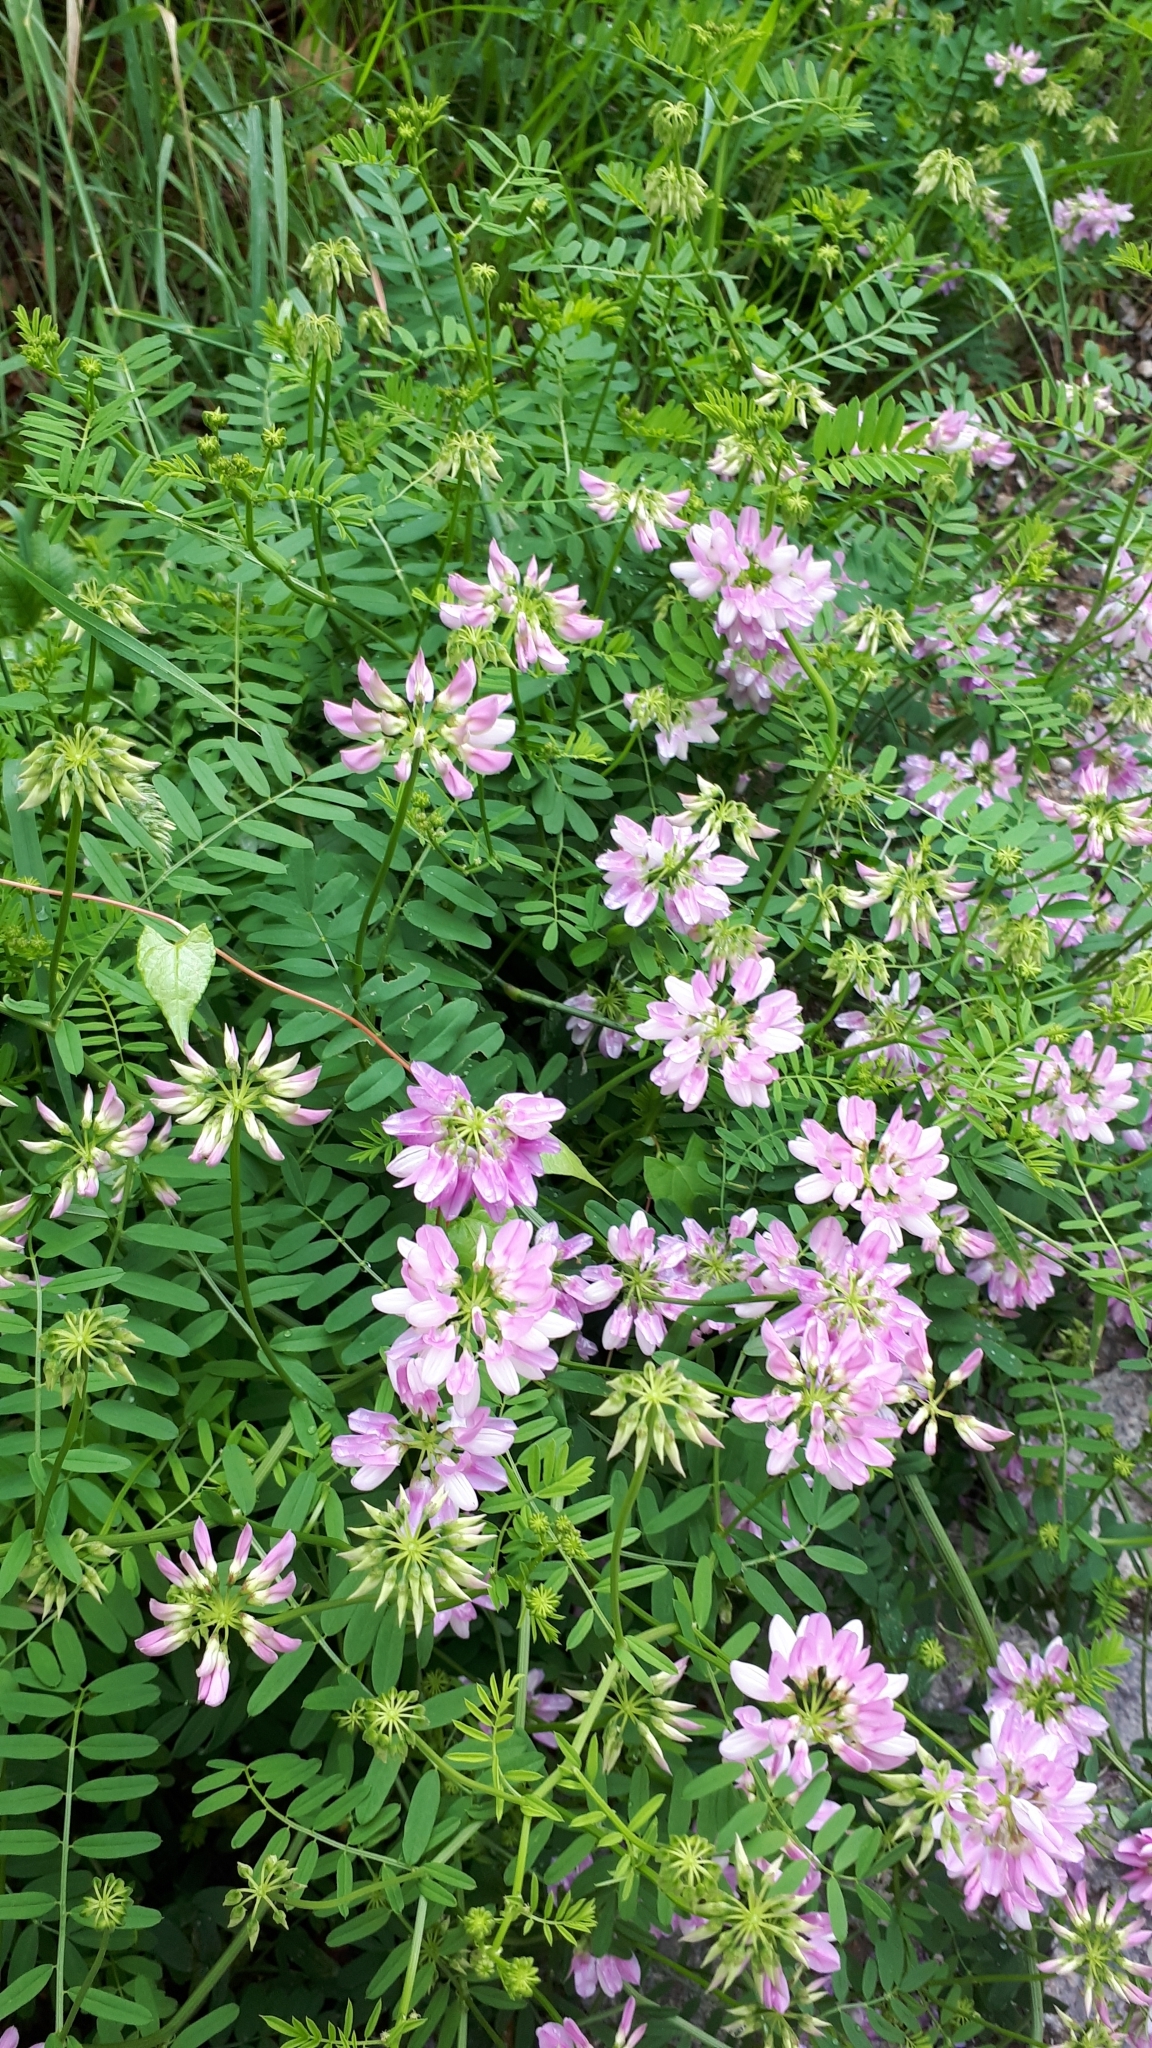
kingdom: Plantae
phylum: Tracheophyta
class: Magnoliopsida
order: Fabales
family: Fabaceae
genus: Coronilla
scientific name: Coronilla varia
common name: Crownvetch
